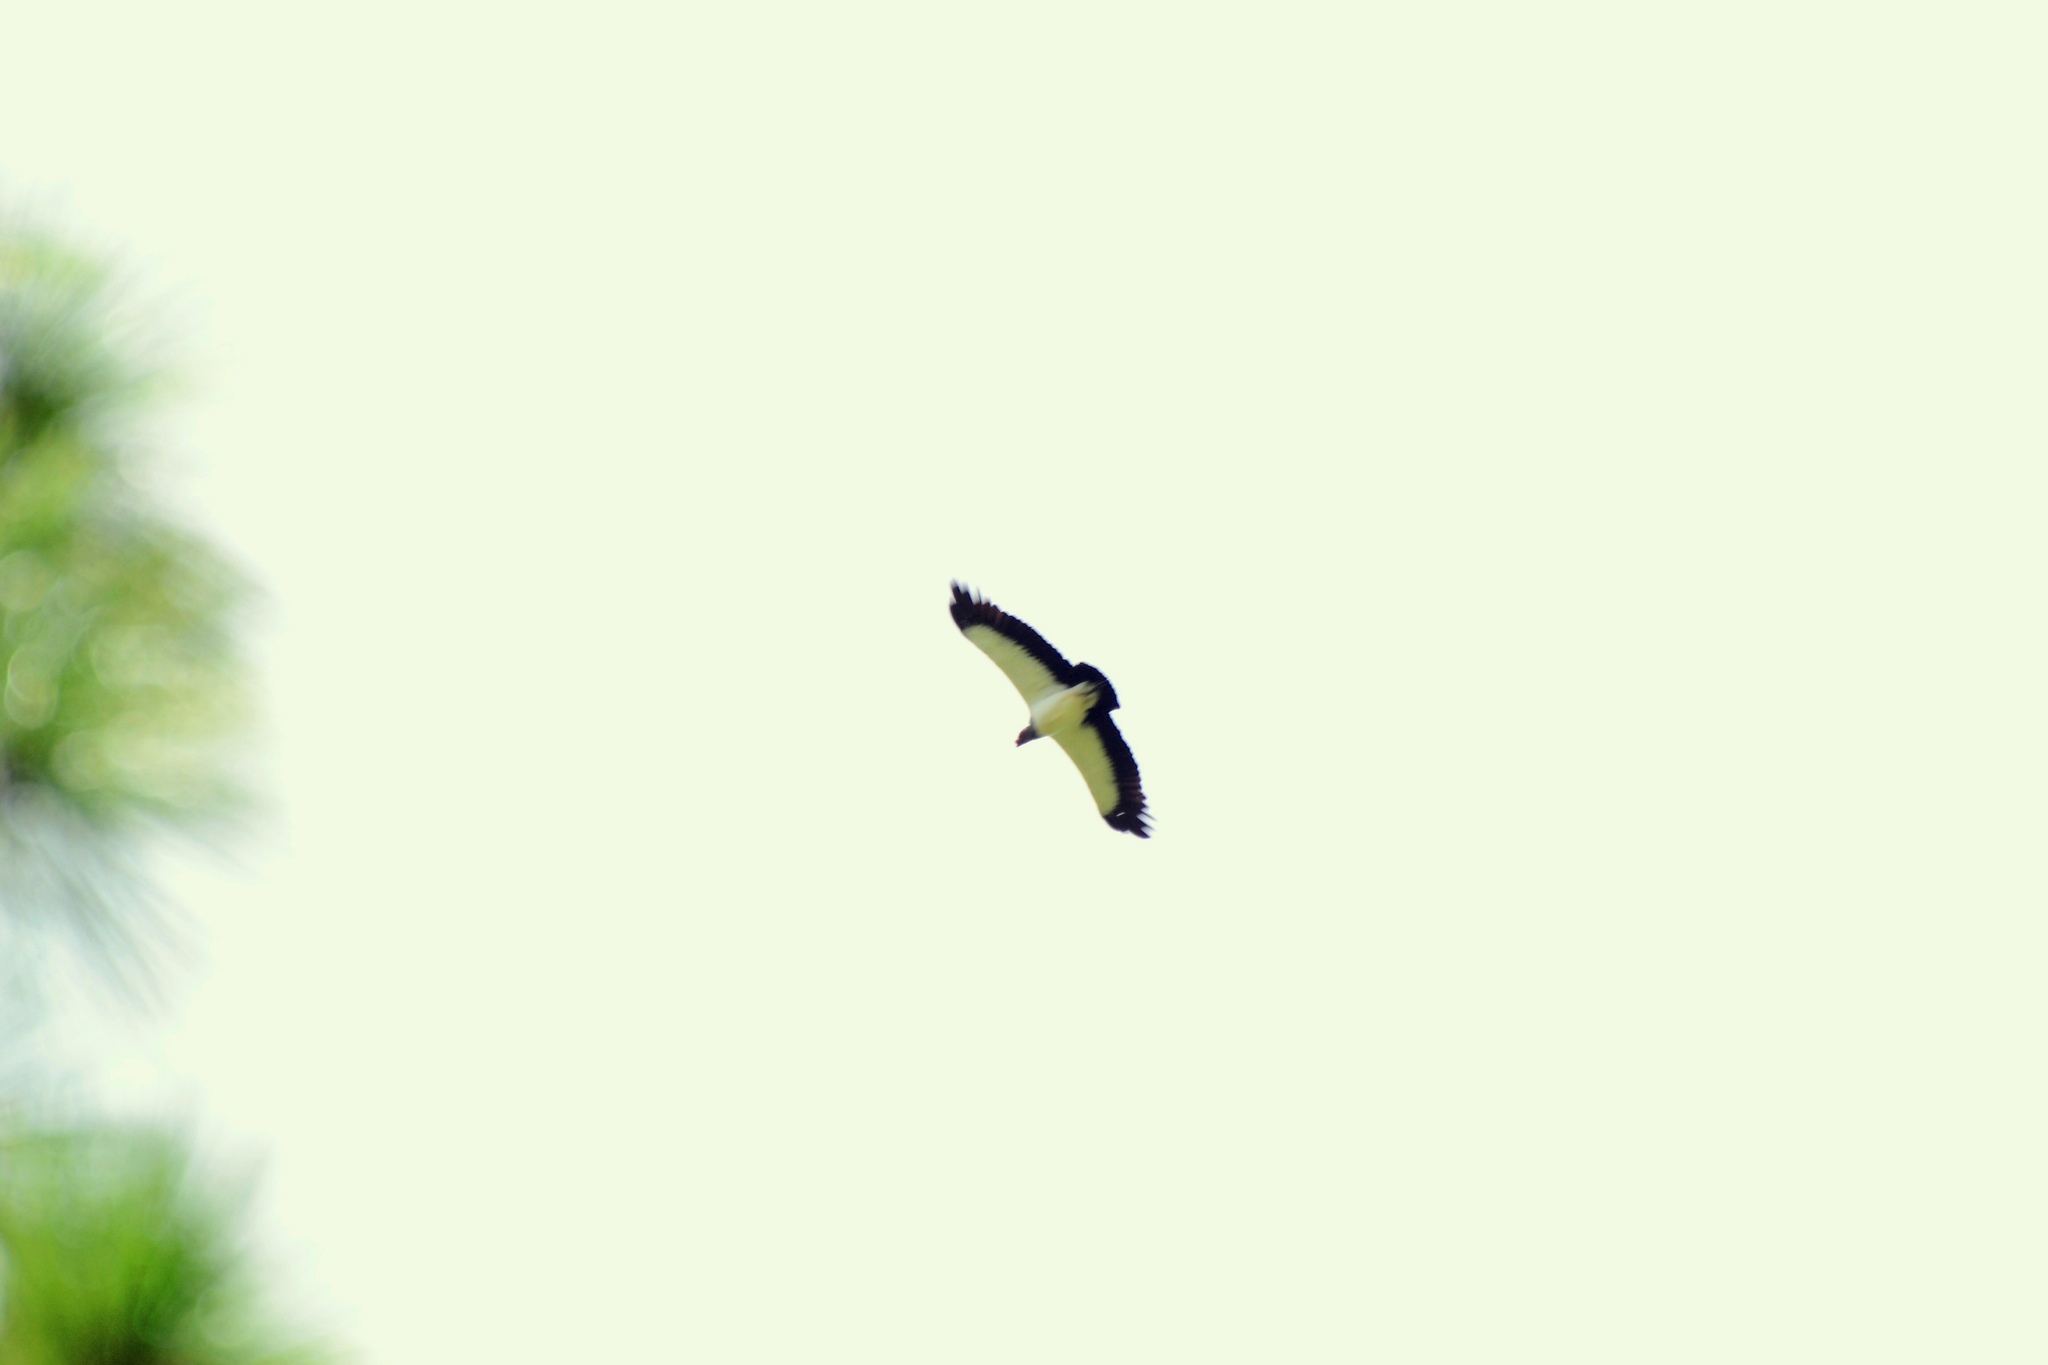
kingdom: Animalia
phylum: Chordata
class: Aves
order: Accipitriformes
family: Cathartidae
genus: Sarcoramphus
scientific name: Sarcoramphus papa
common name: King vulture
